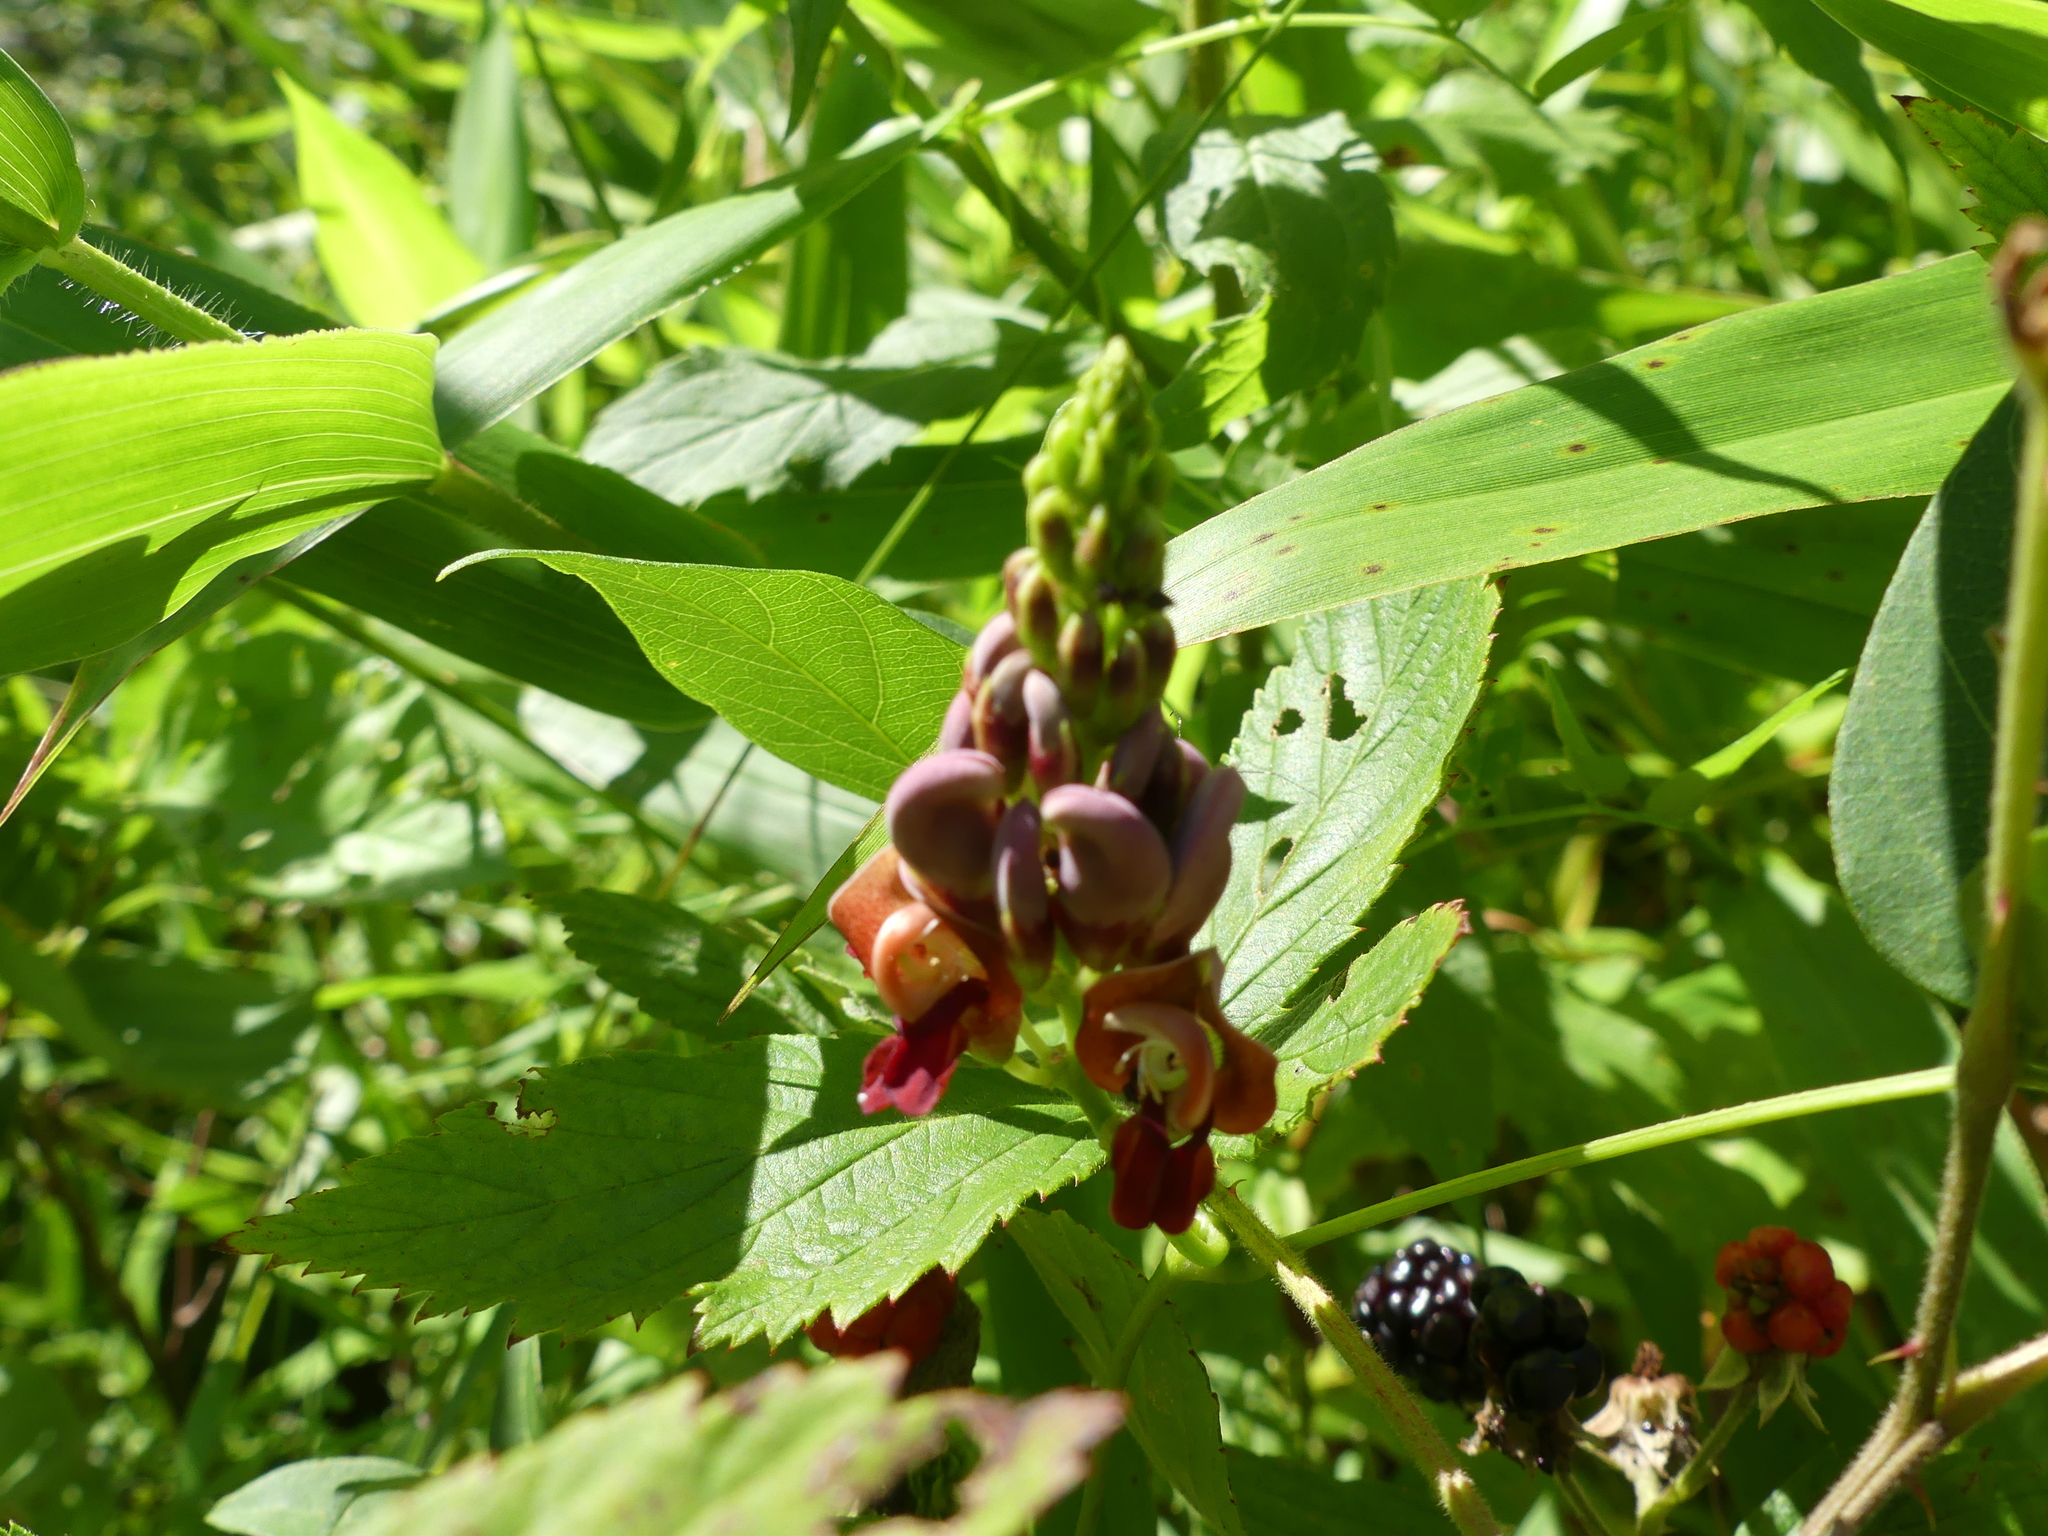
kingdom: Plantae
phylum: Tracheophyta
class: Magnoliopsida
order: Fabales
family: Fabaceae
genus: Apios
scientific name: Apios americana
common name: American potato-bean
